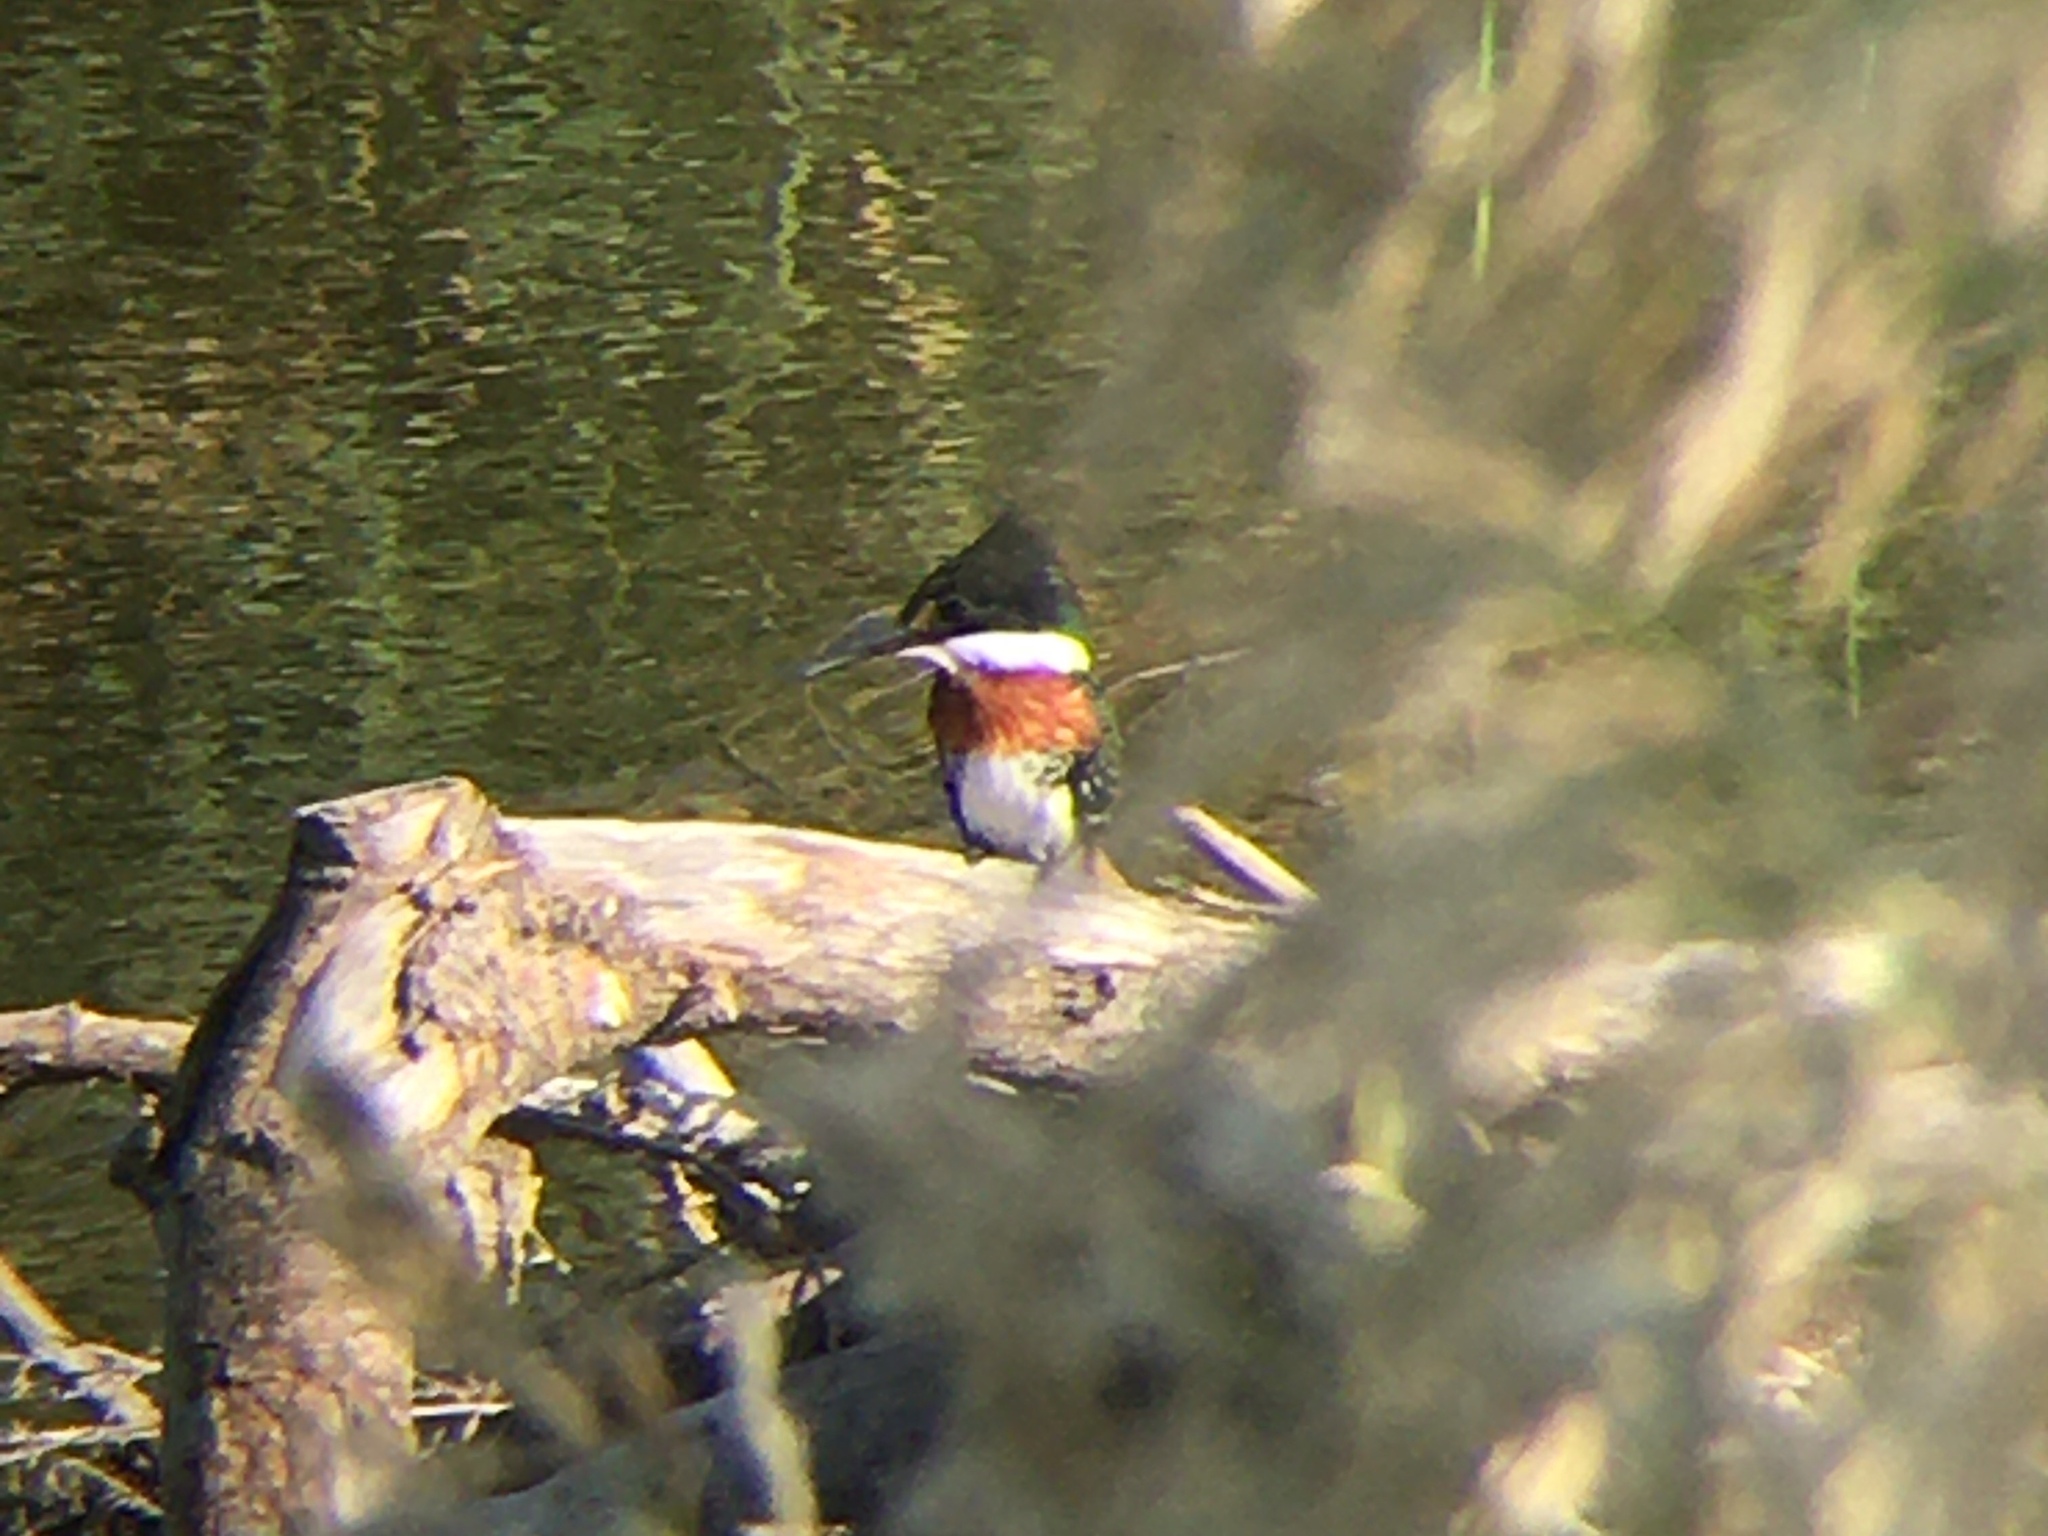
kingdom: Animalia
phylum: Chordata
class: Aves
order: Coraciiformes
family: Alcedinidae
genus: Chloroceryle
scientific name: Chloroceryle americana
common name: Green kingfisher
